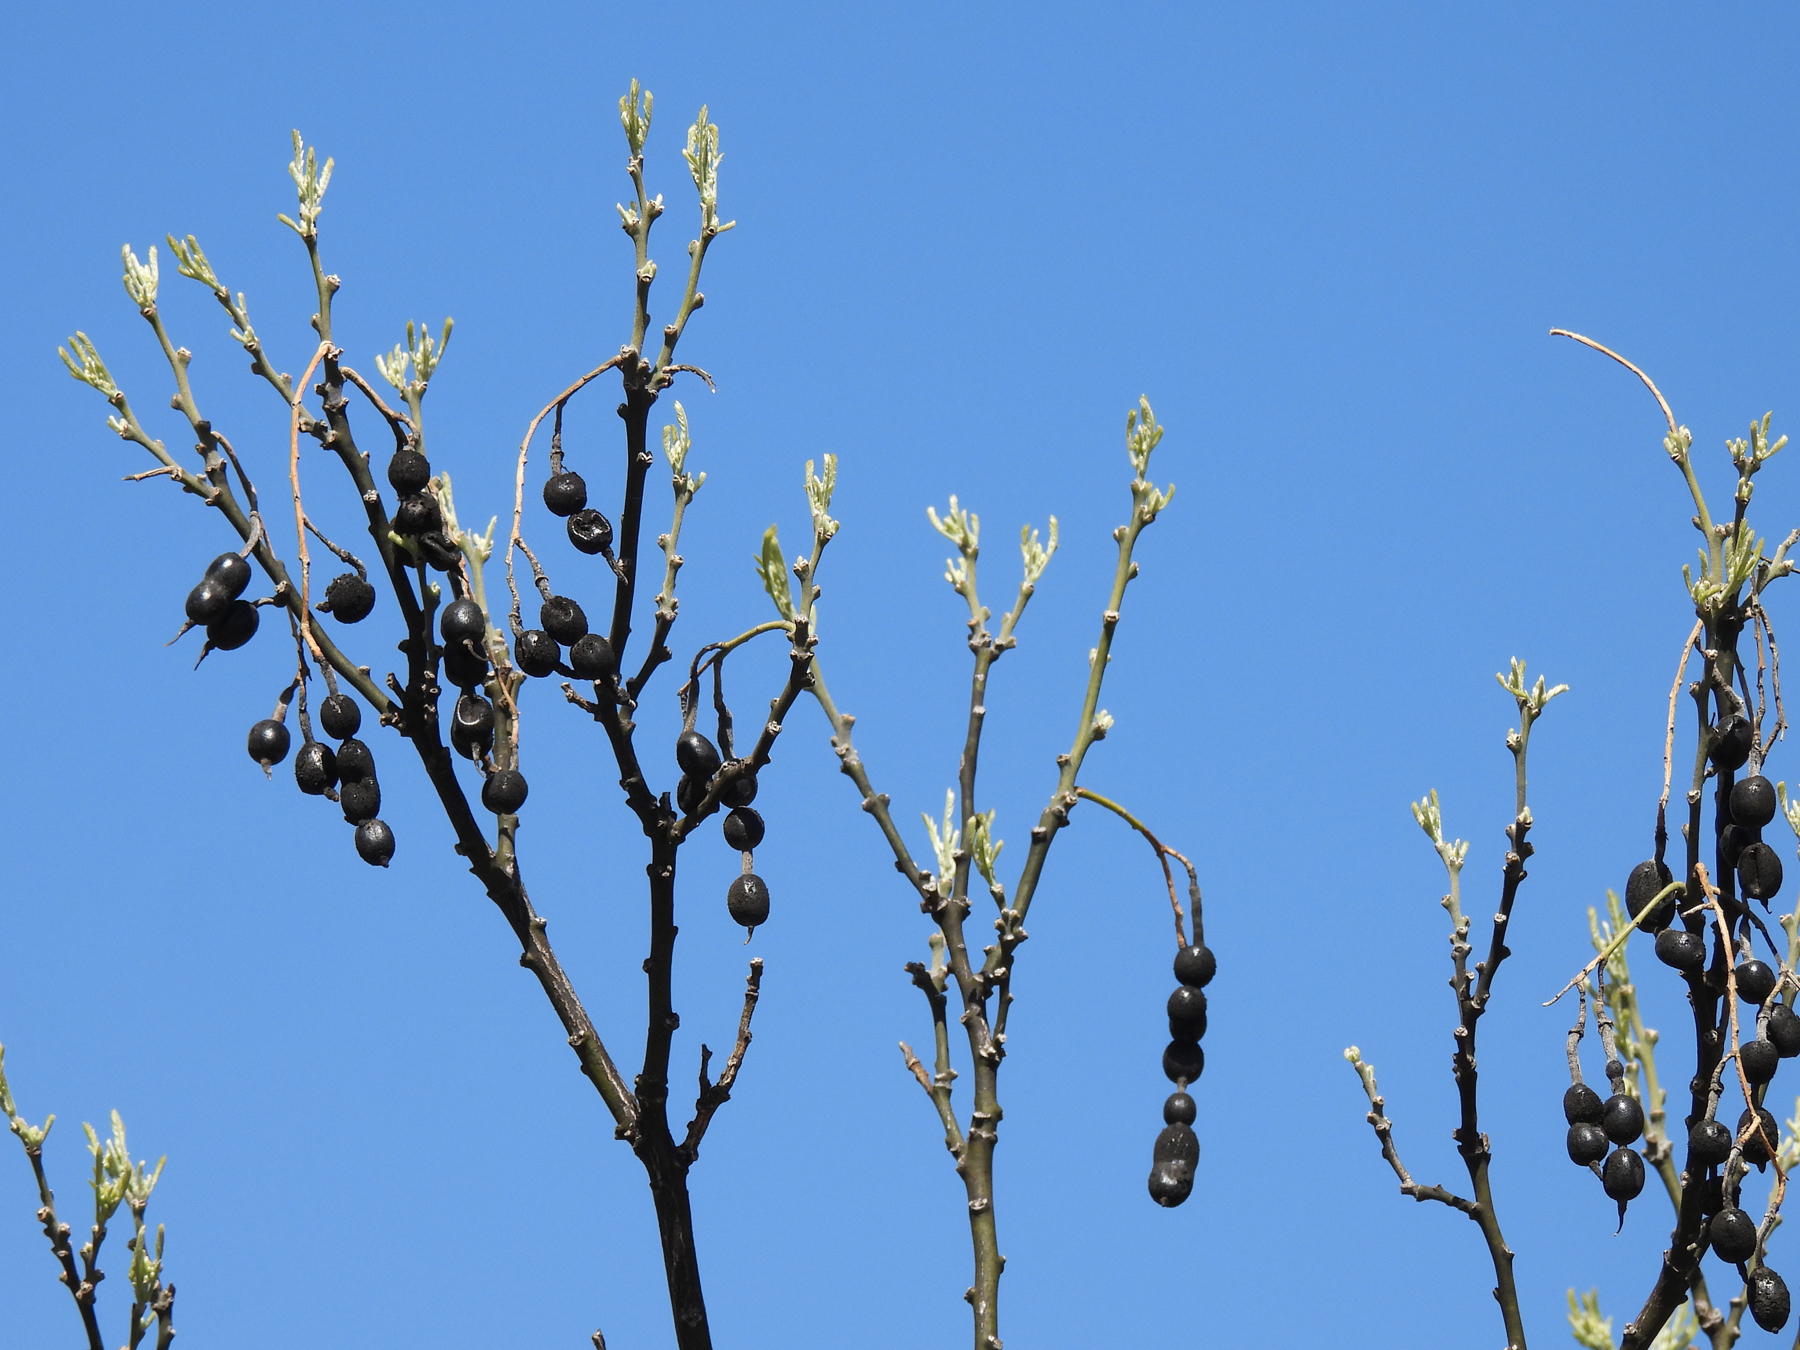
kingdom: Plantae
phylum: Tracheophyta
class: Magnoliopsida
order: Fabales
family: Fabaceae
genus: Styphnolobium
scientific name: Styphnolobium affine
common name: Texas sophora
